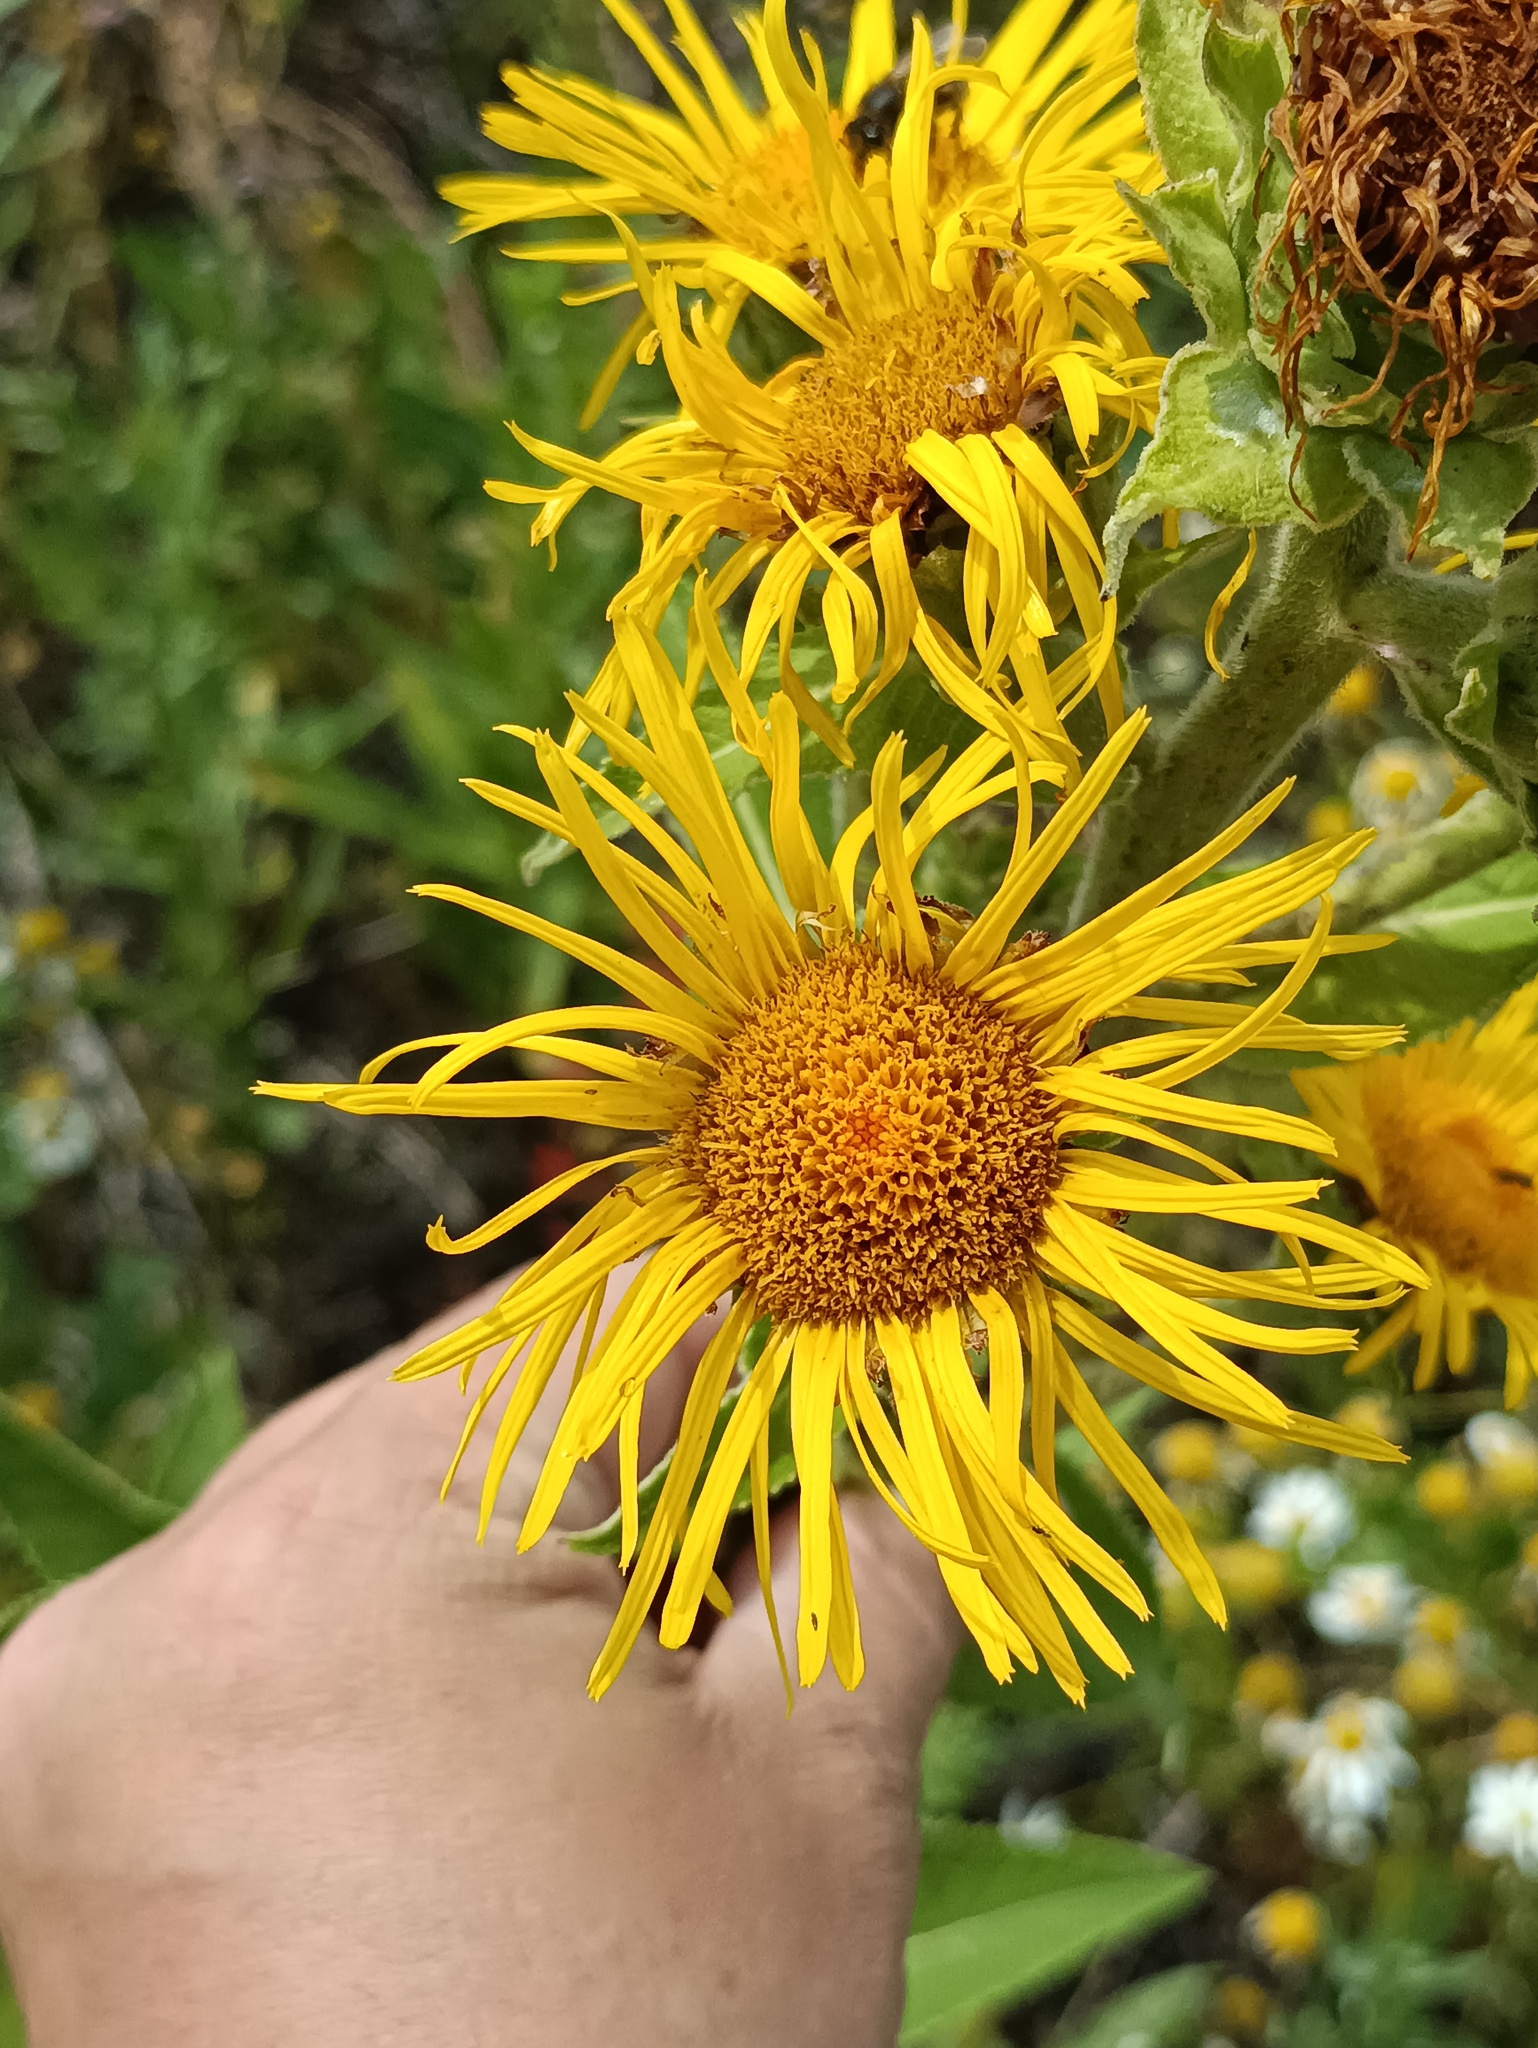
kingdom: Plantae
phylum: Tracheophyta
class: Magnoliopsida
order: Asterales
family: Asteraceae
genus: Inula
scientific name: Inula helenium
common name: Elecampane
